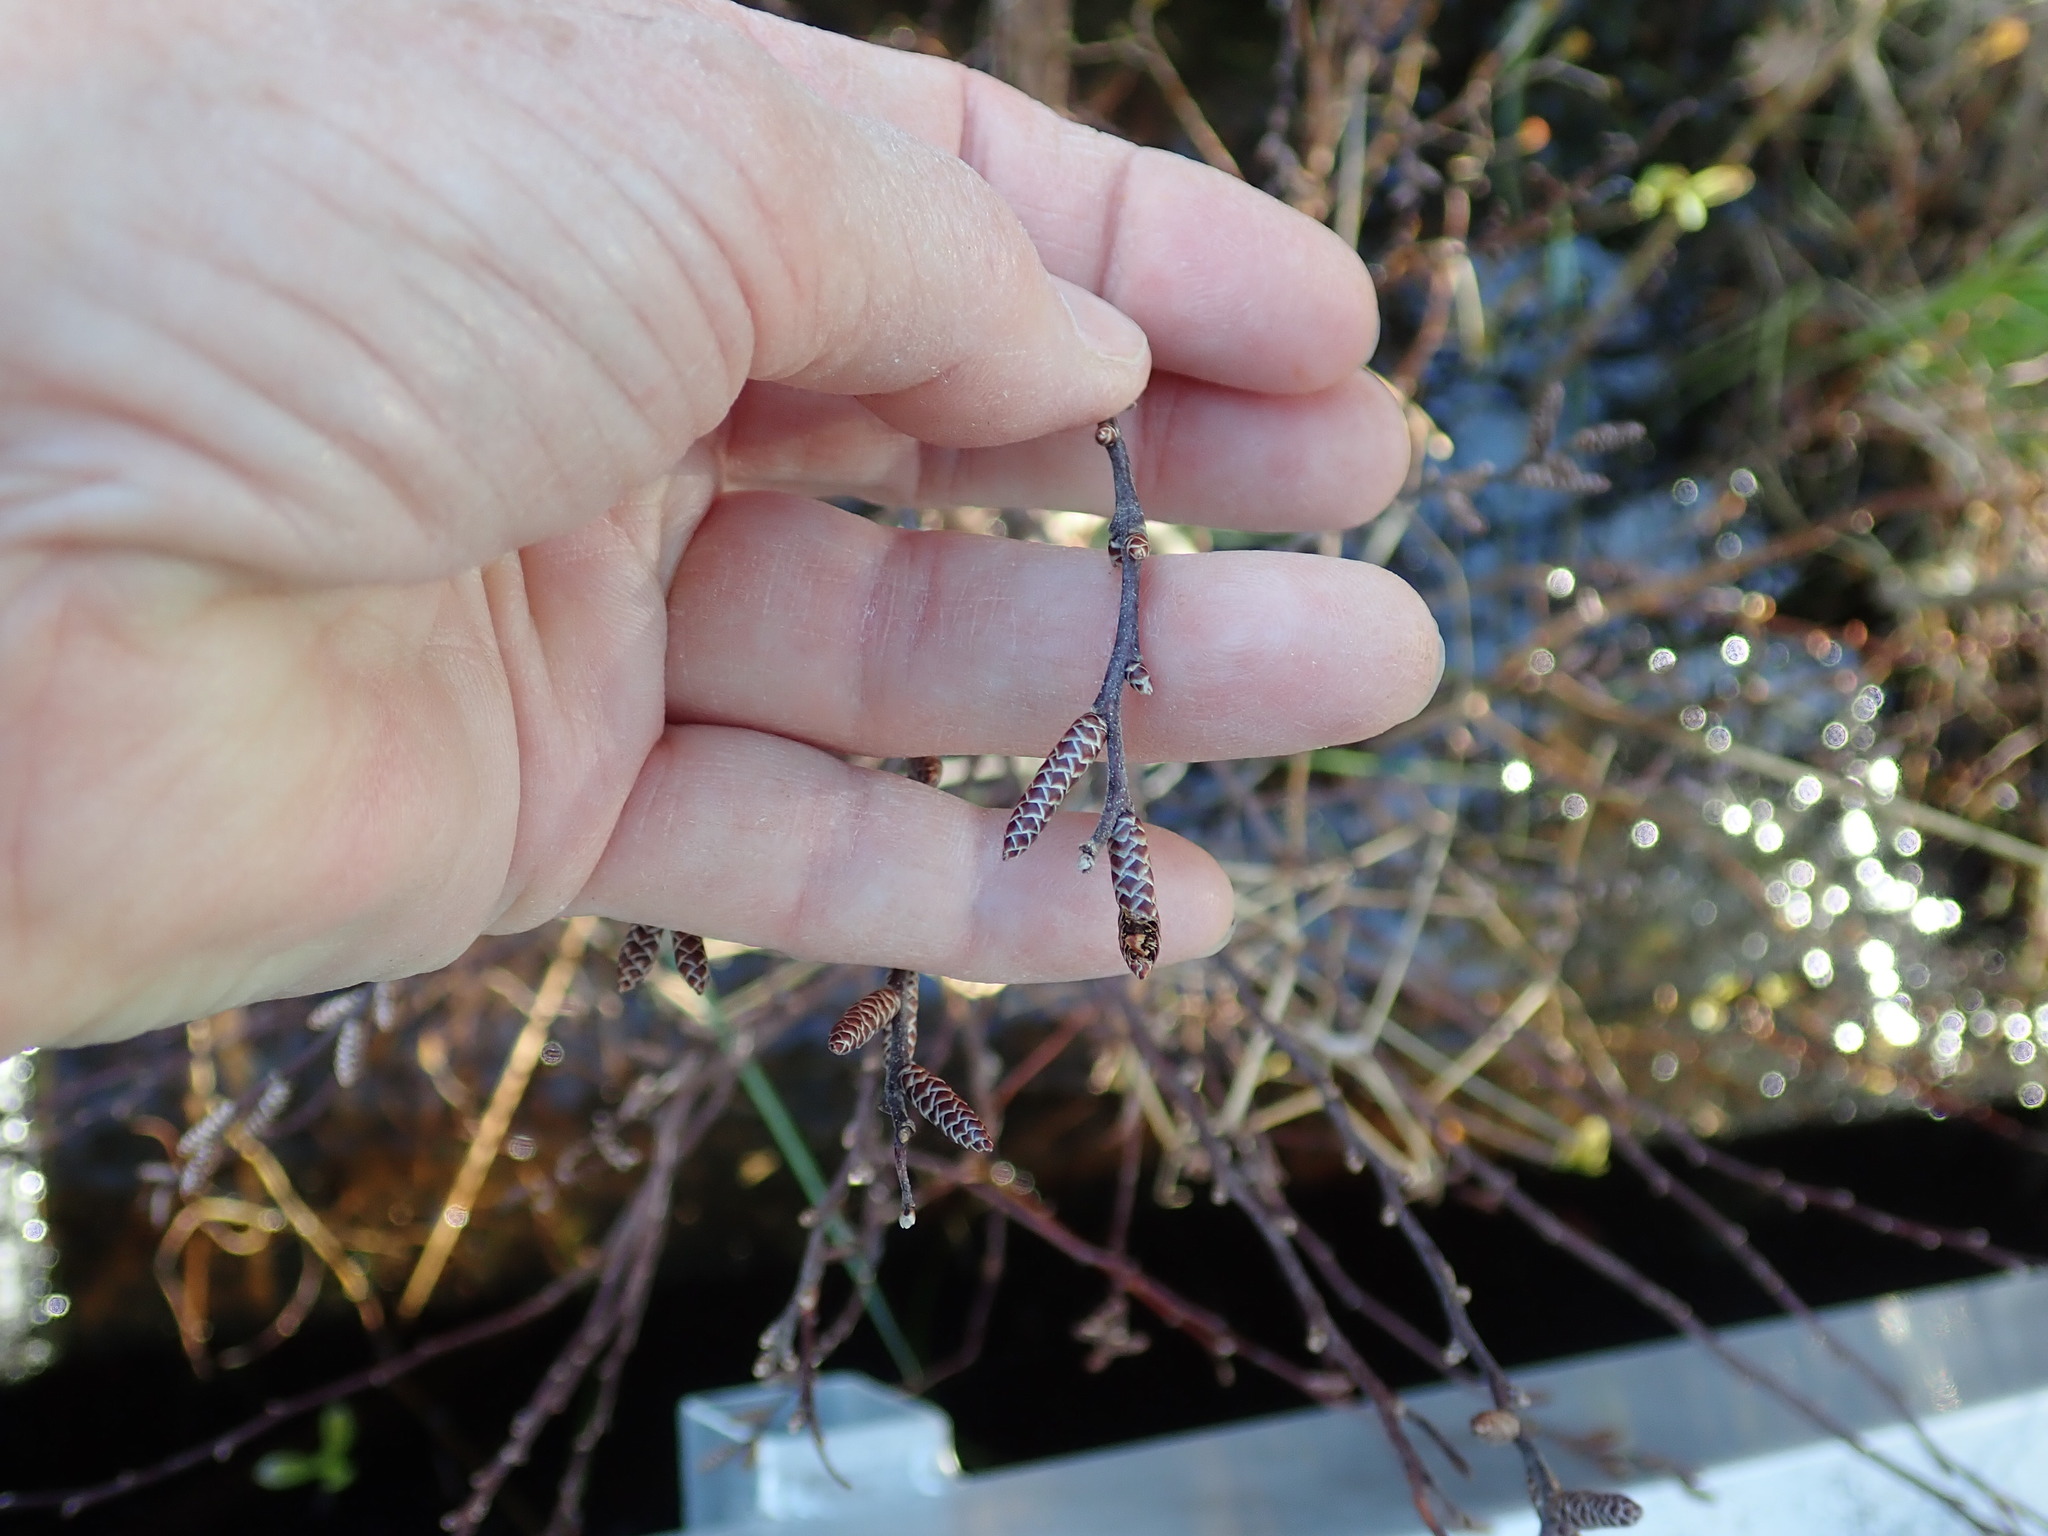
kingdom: Plantae
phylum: Tracheophyta
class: Magnoliopsida
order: Fagales
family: Myricaceae
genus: Myrica
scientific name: Myrica gale
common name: Sweet gale
